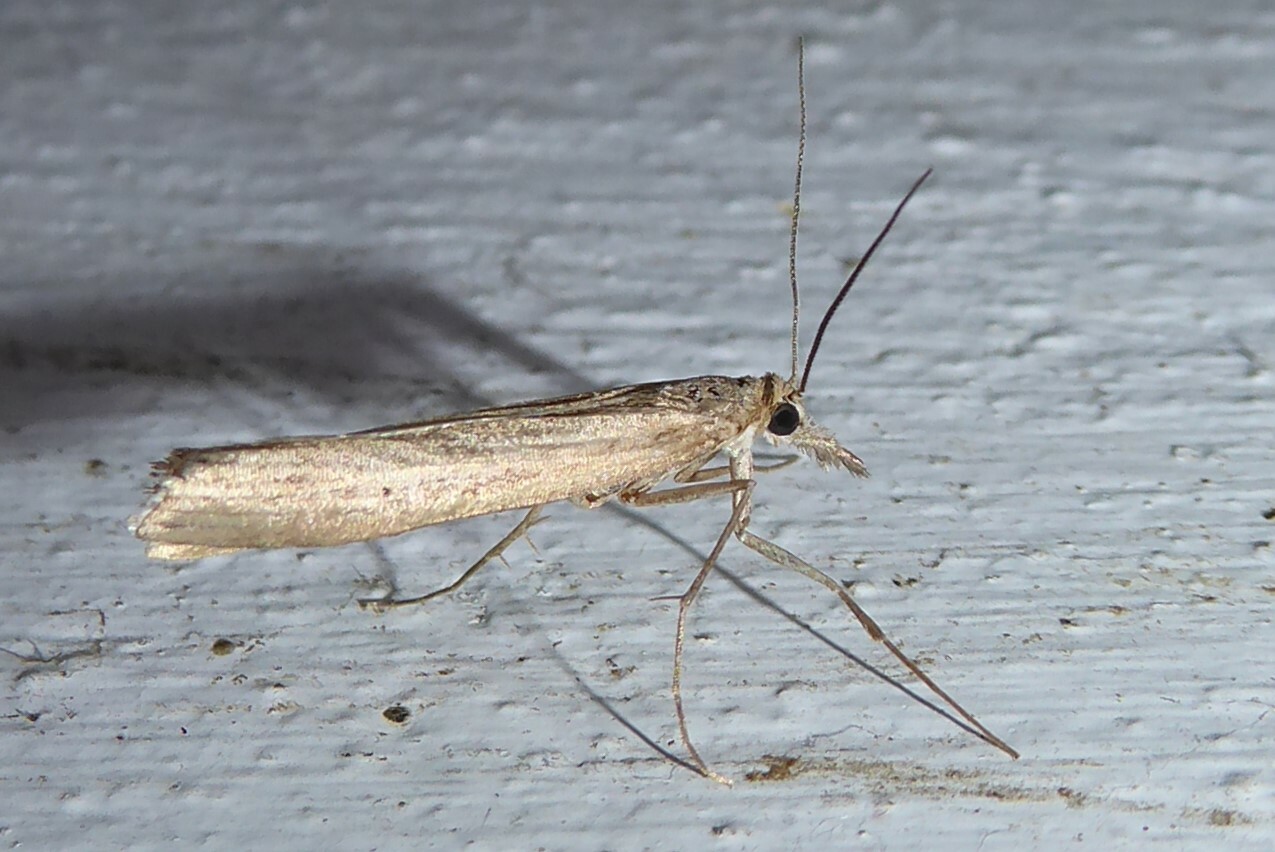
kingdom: Animalia
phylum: Arthropoda
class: Insecta
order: Lepidoptera
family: Crambidae
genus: Orocrambus
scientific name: Orocrambus cyclopicus
